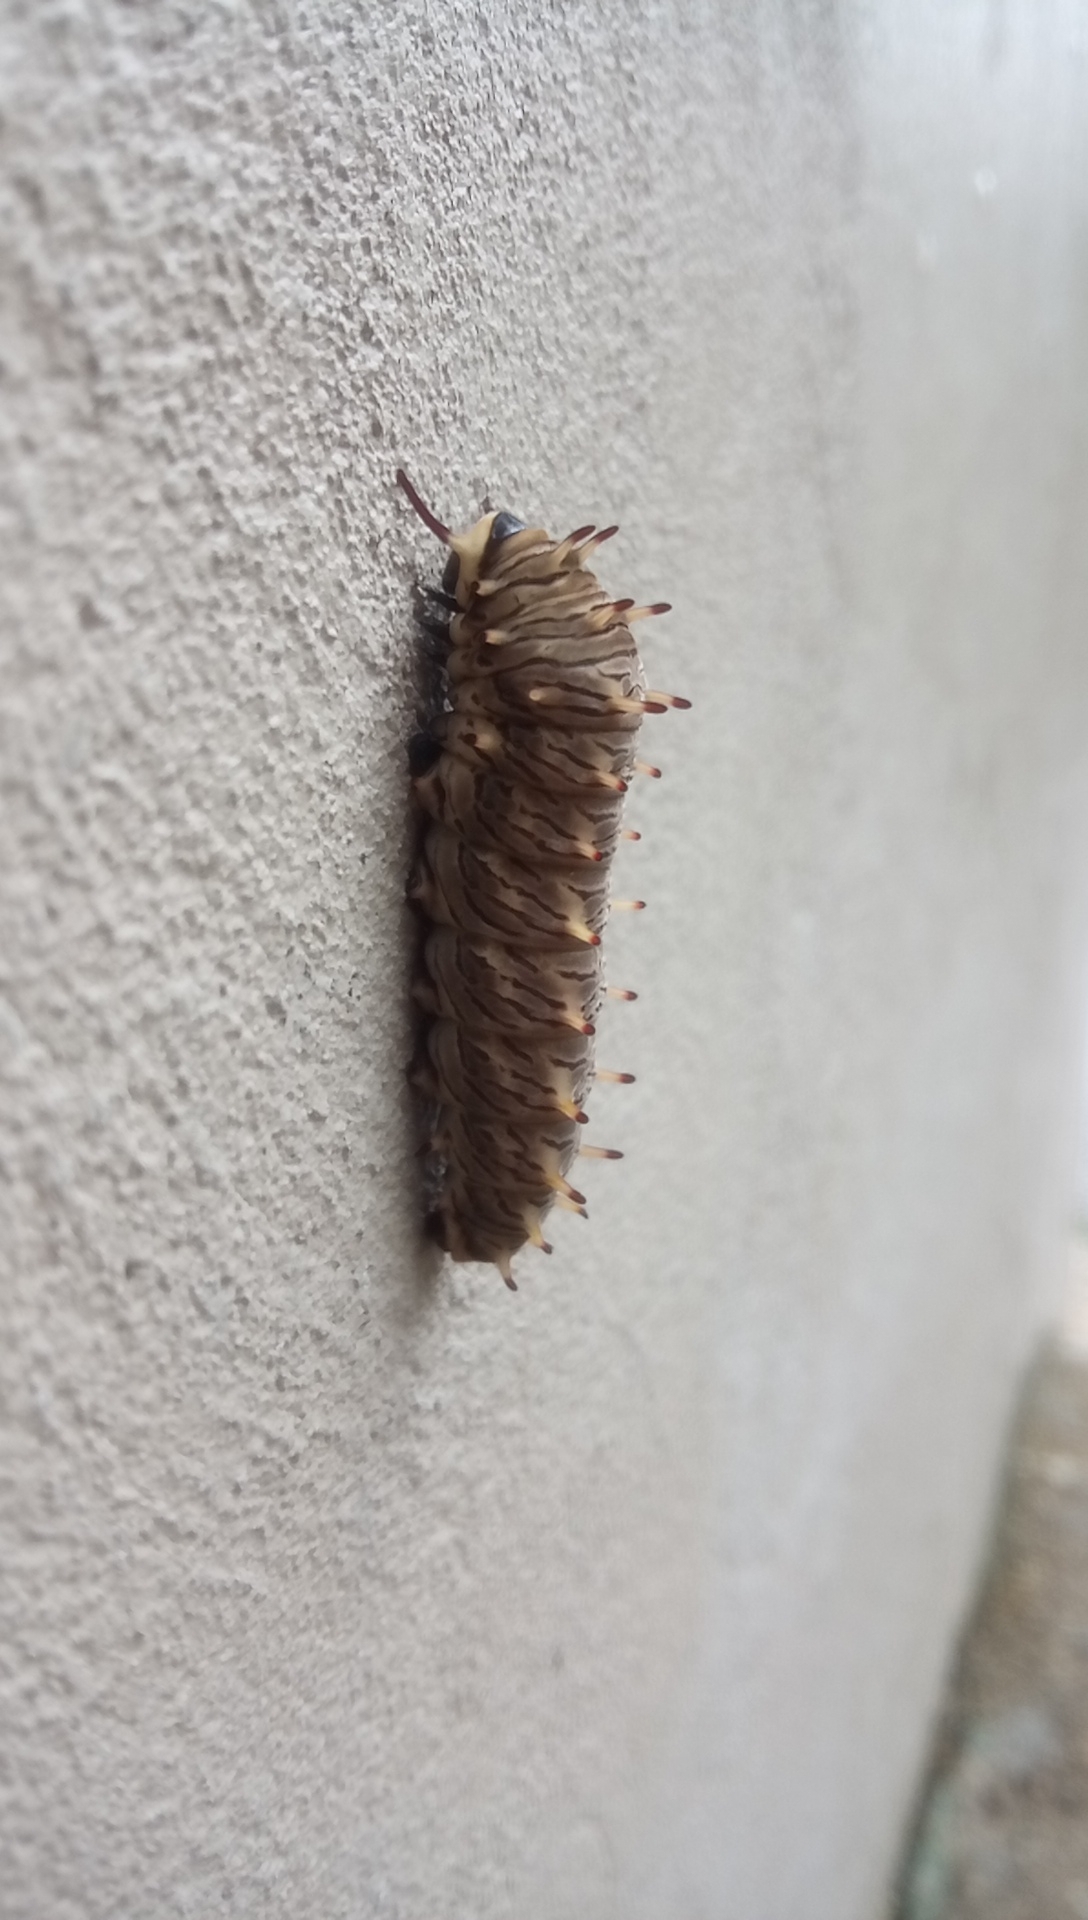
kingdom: Animalia
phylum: Arthropoda
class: Insecta
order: Lepidoptera
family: Papilionidae
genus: Battus
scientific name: Battus polydamas
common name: Polydamas swallowtail
